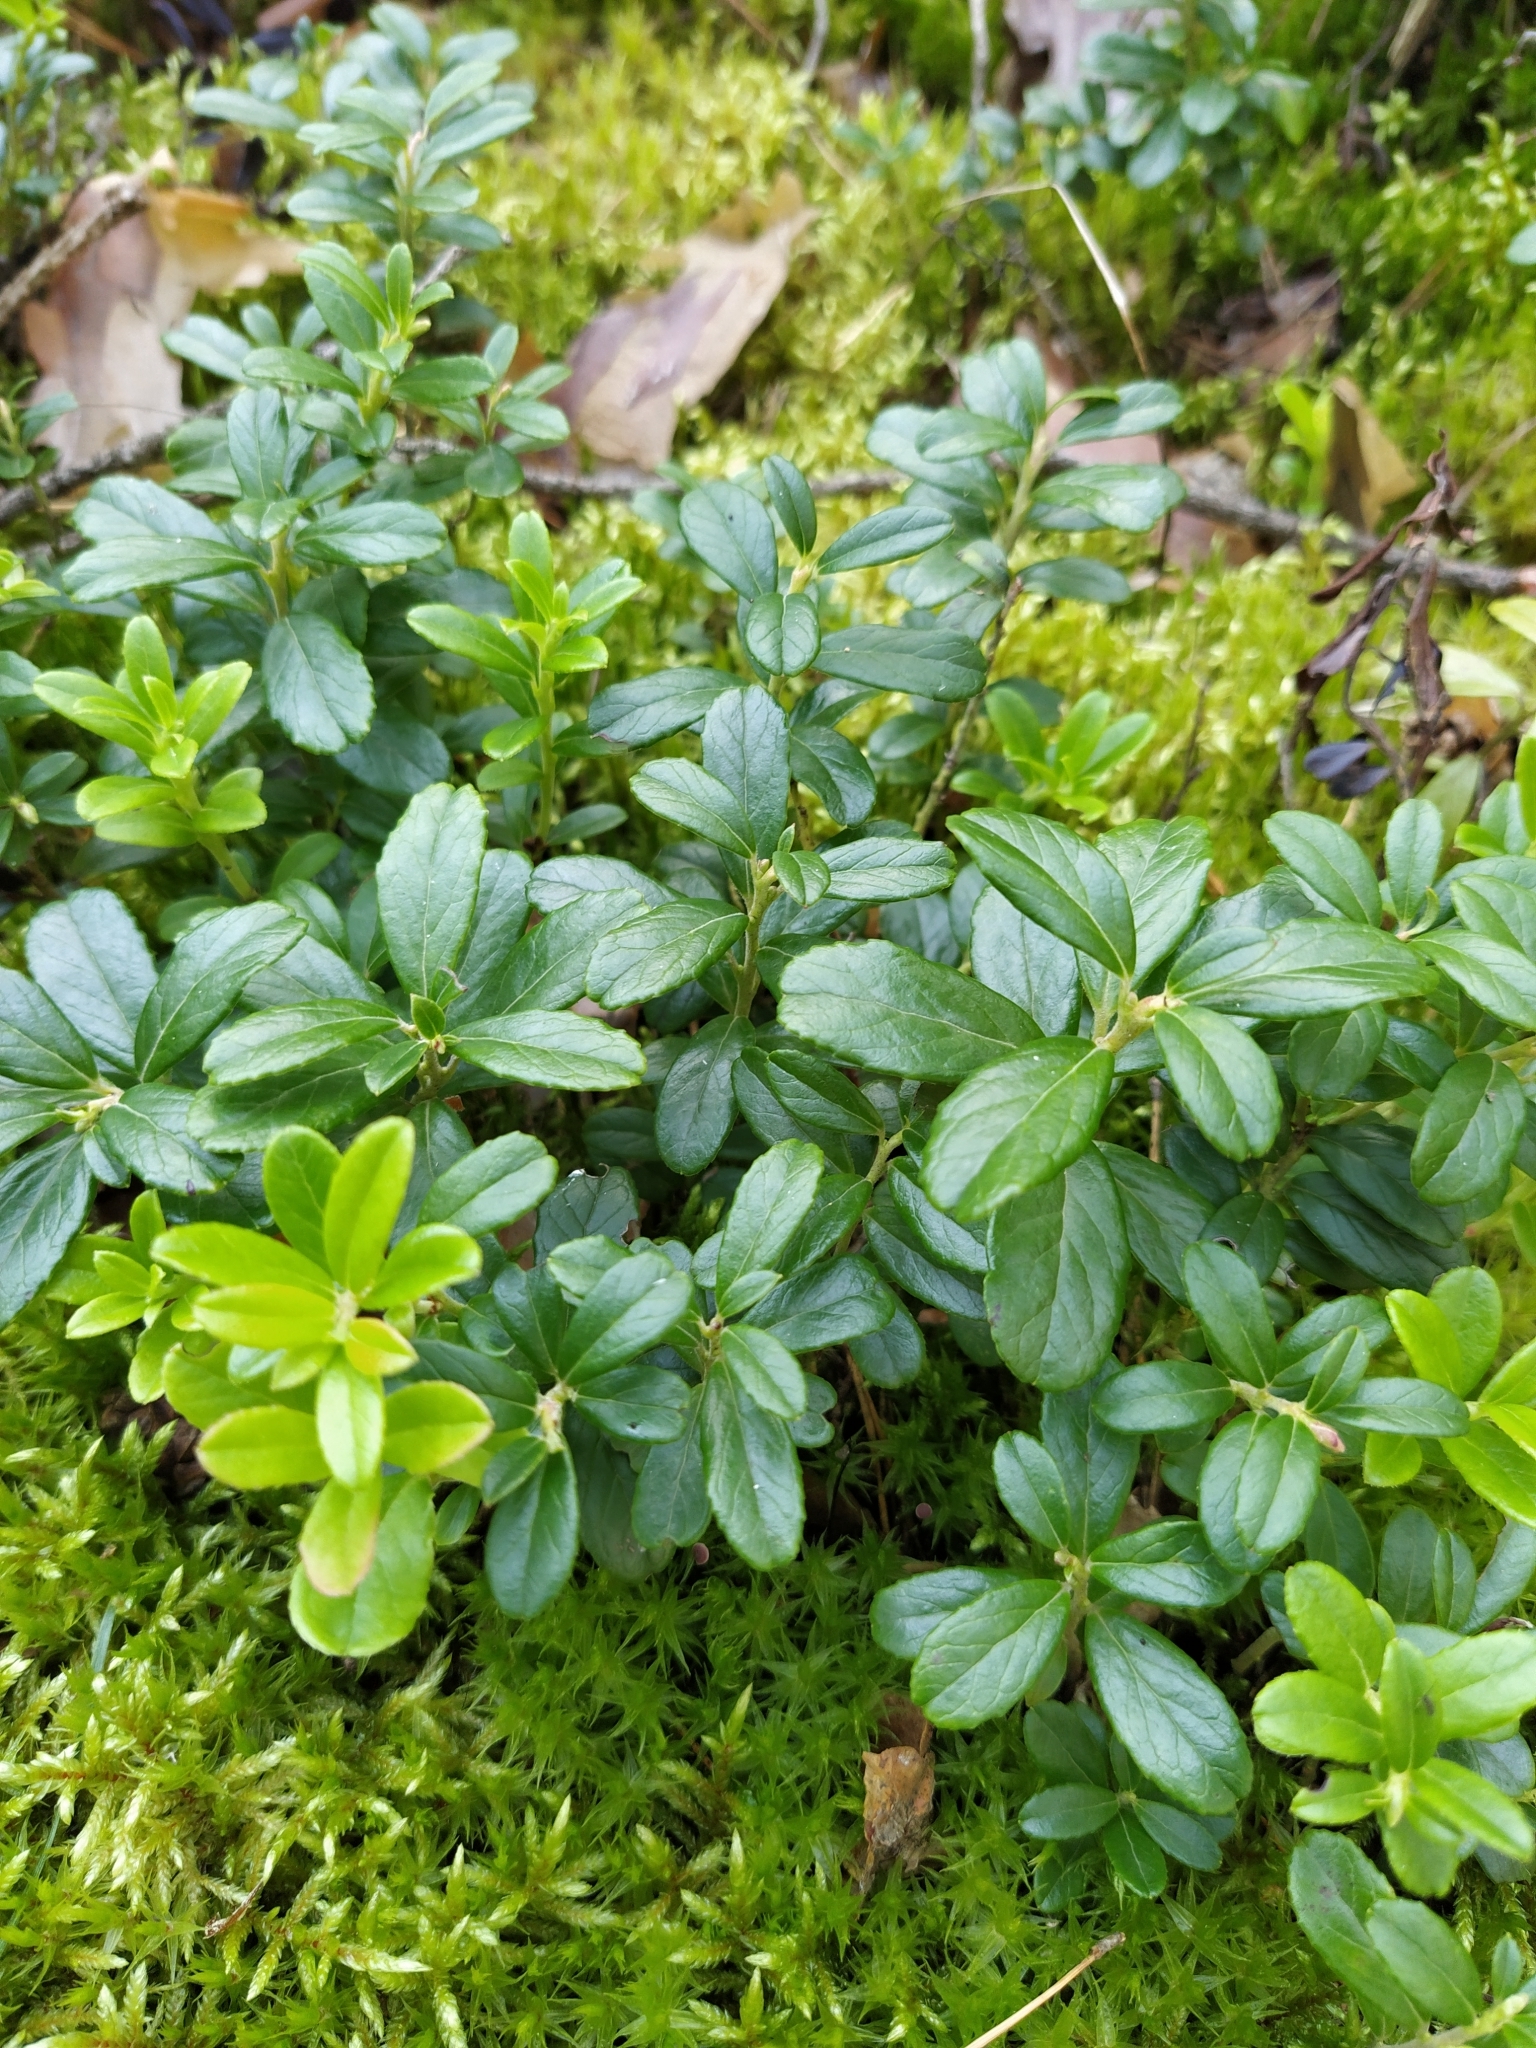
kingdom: Plantae
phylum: Tracheophyta
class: Magnoliopsida
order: Ericales
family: Ericaceae
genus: Vaccinium
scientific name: Vaccinium vitis-idaea
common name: Cowberry
